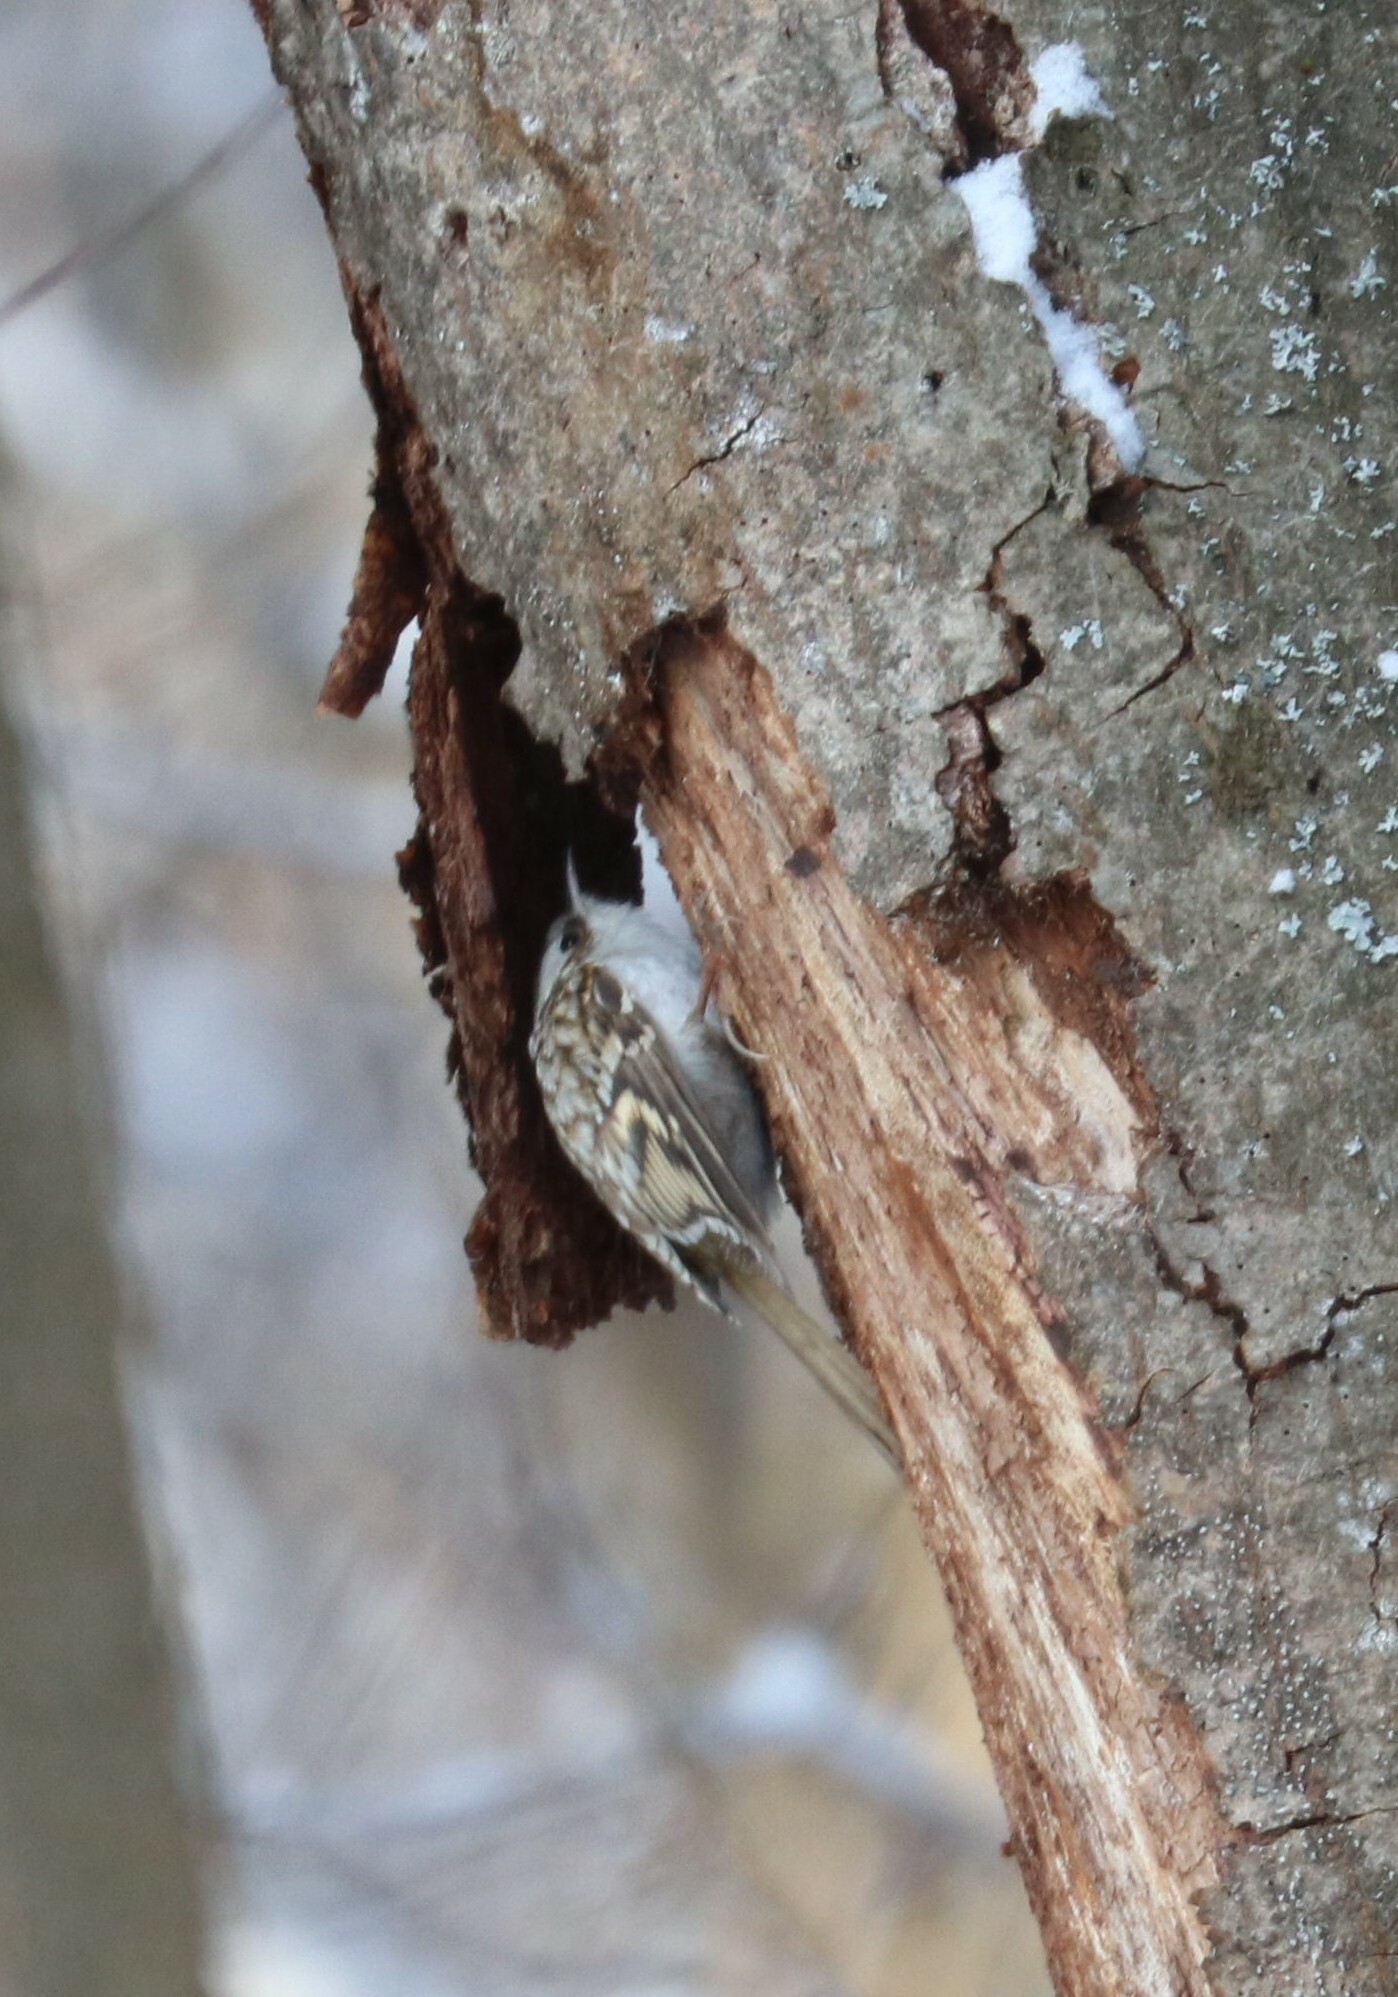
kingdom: Animalia
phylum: Chordata
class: Aves
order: Passeriformes
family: Certhiidae
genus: Certhia
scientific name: Certhia familiaris
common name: Eurasian treecreeper
